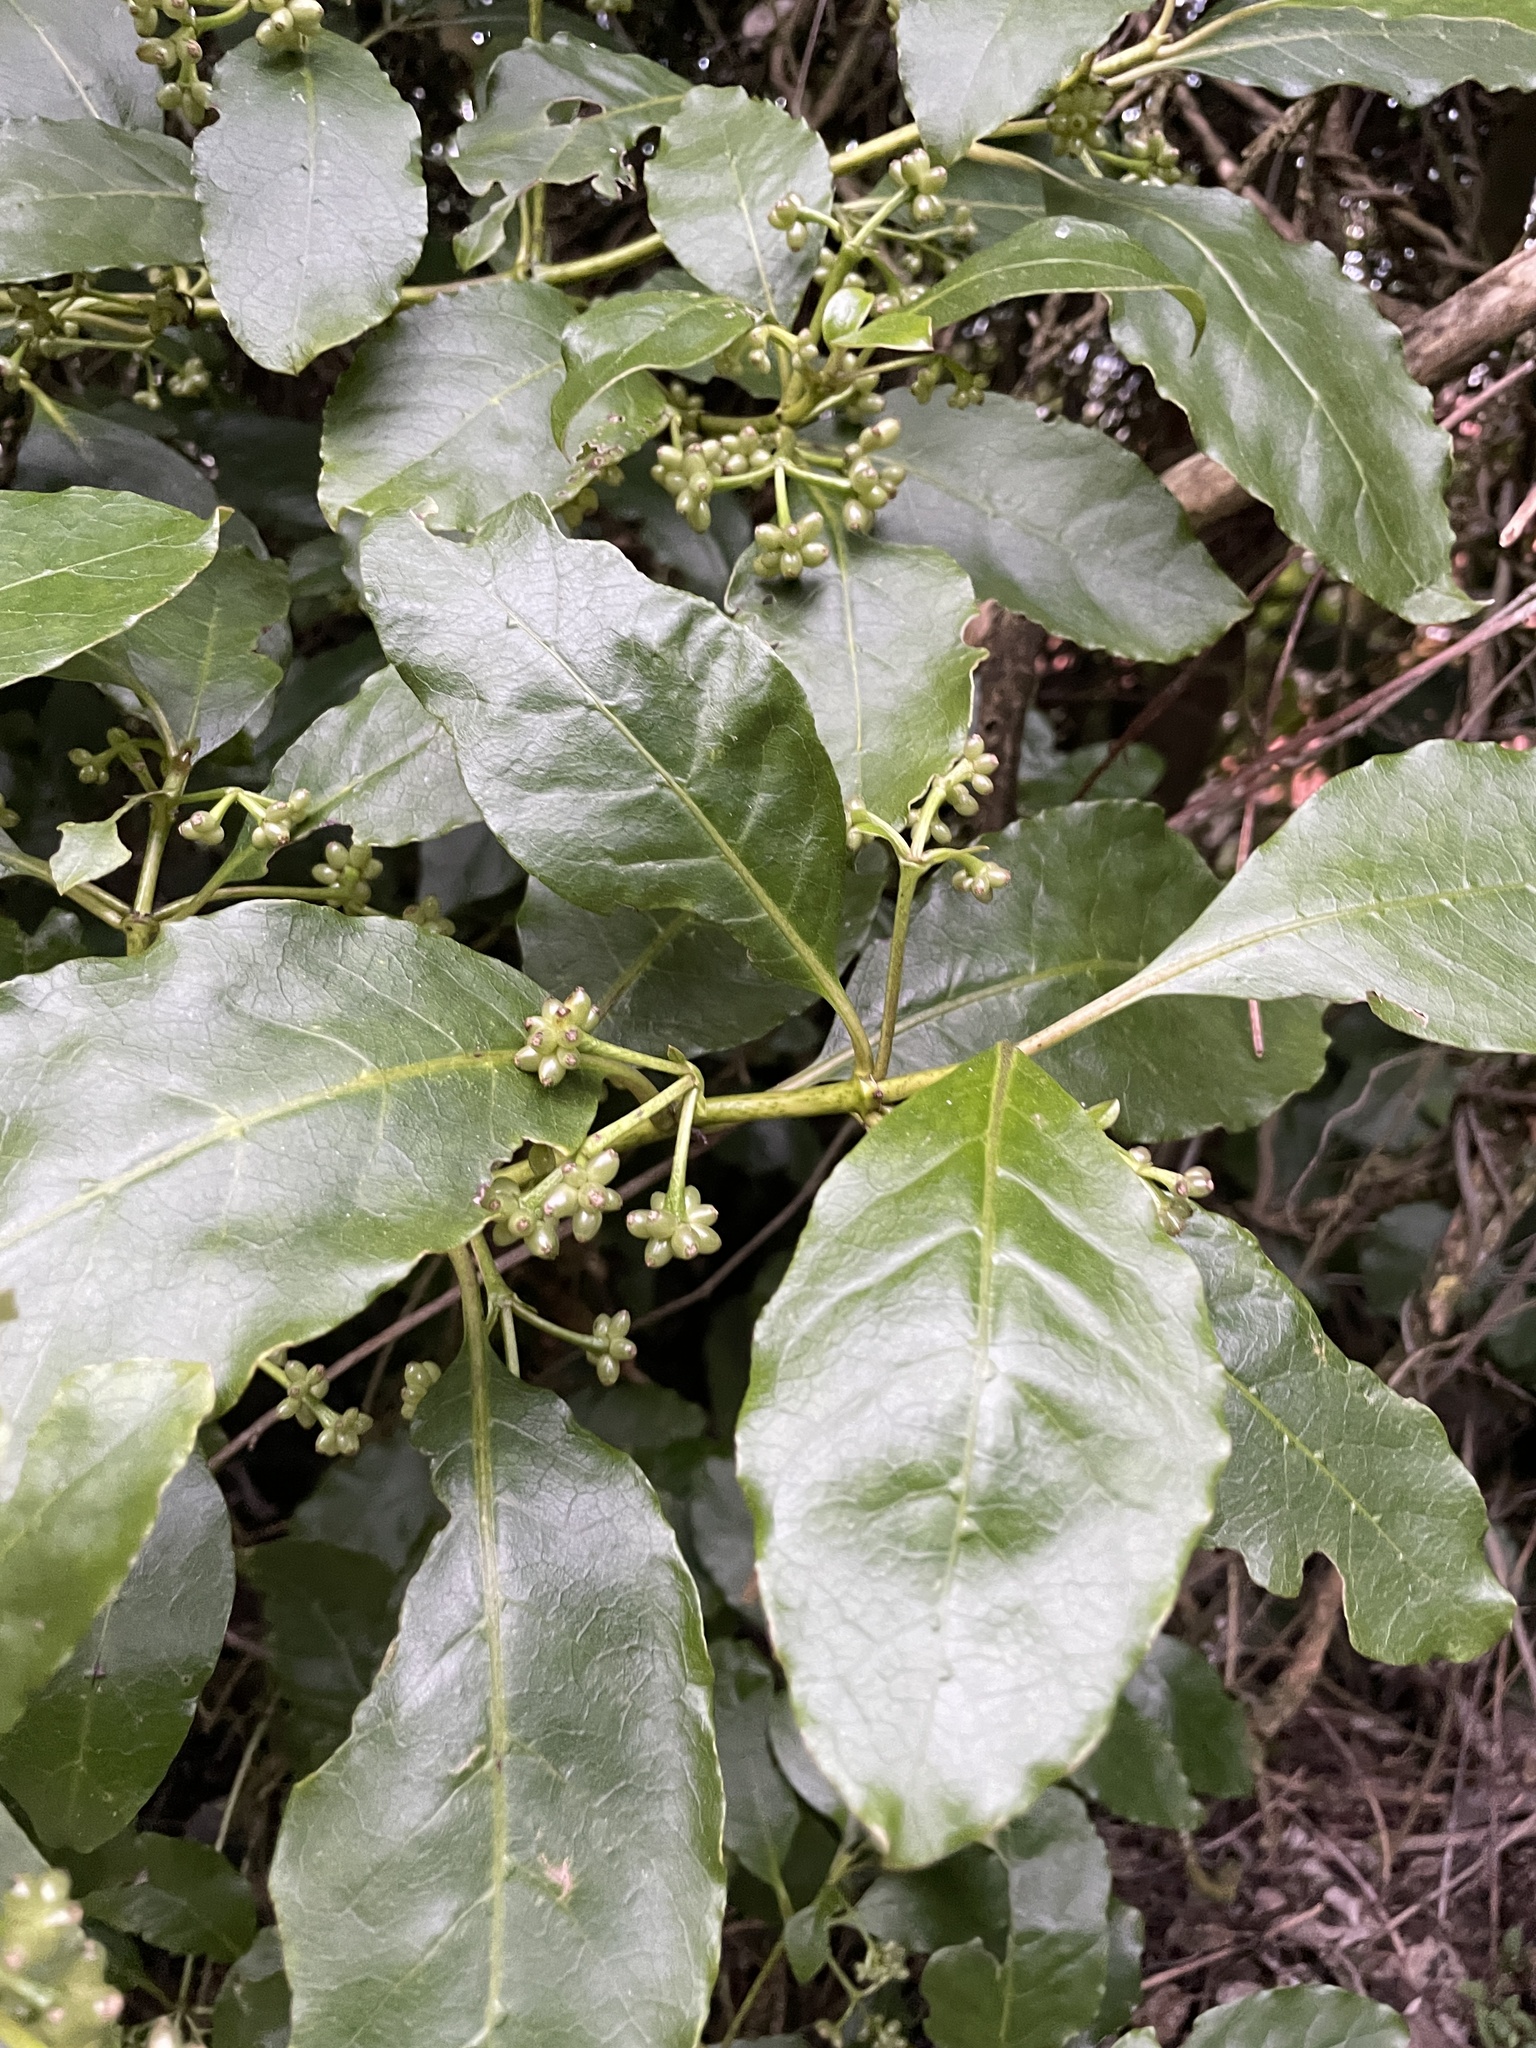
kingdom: Plantae
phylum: Tracheophyta
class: Magnoliopsida
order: Gentianales
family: Rubiaceae
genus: Coprosma
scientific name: Coprosma autumnalis
